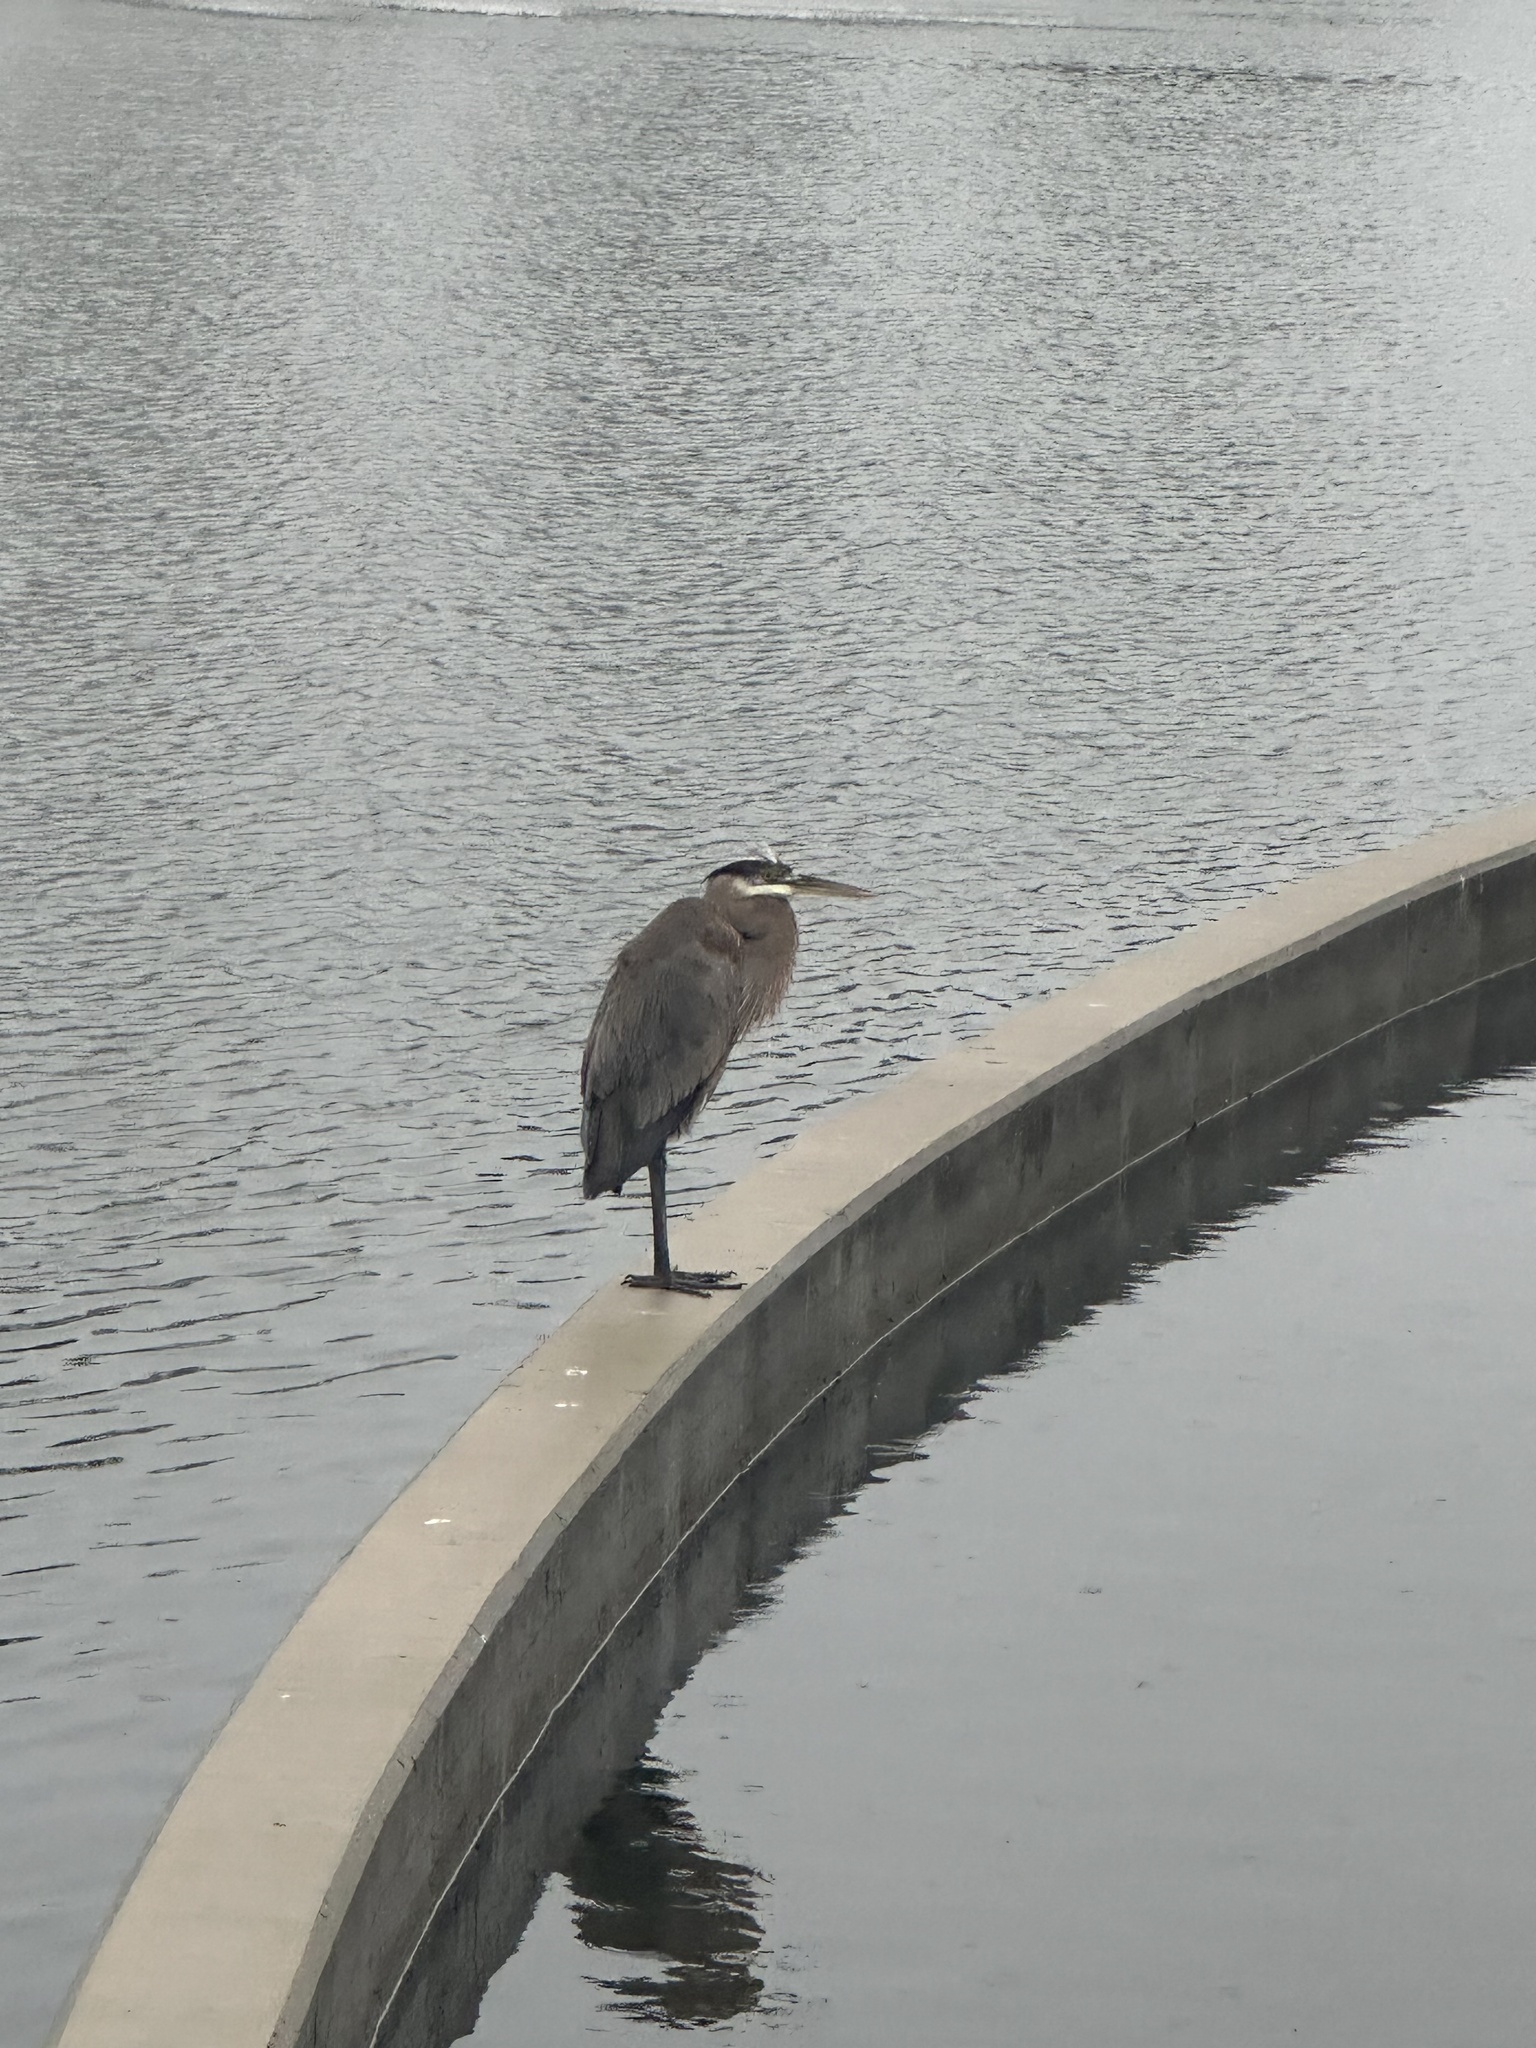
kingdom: Animalia
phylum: Chordata
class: Aves
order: Pelecaniformes
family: Ardeidae
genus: Ardea
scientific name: Ardea herodias
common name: Great blue heron
